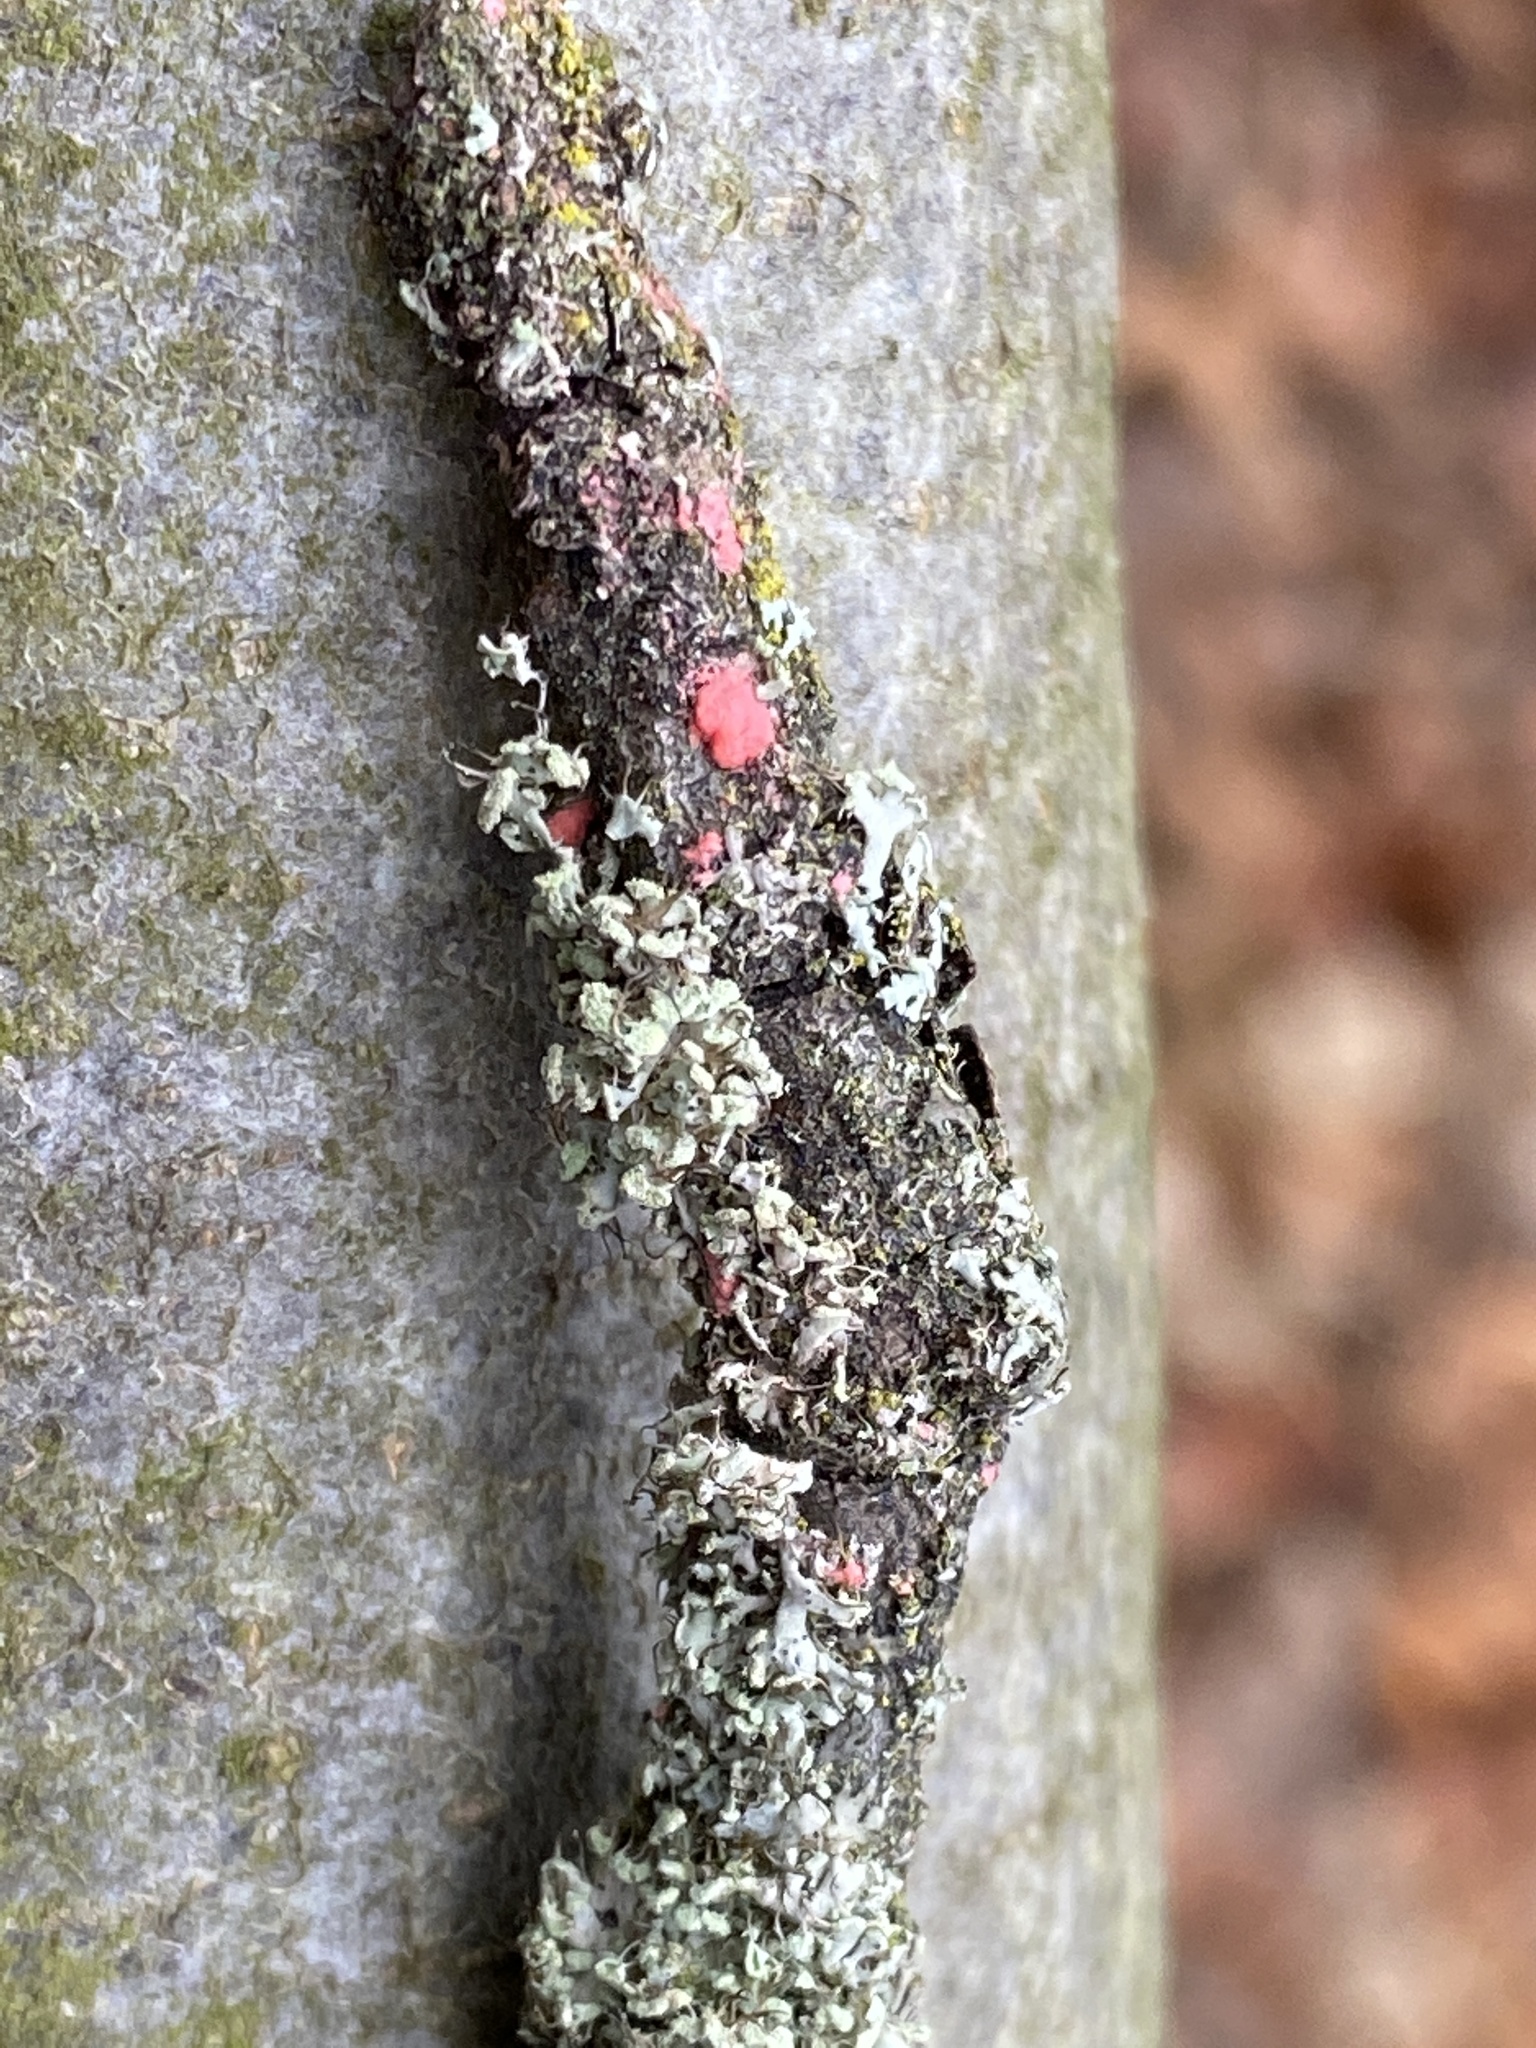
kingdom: Fungi
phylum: Ascomycota
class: Sordariomycetes
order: Hypocreales
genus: Illosporiopsis
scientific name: Illosporiopsis christiansenii
